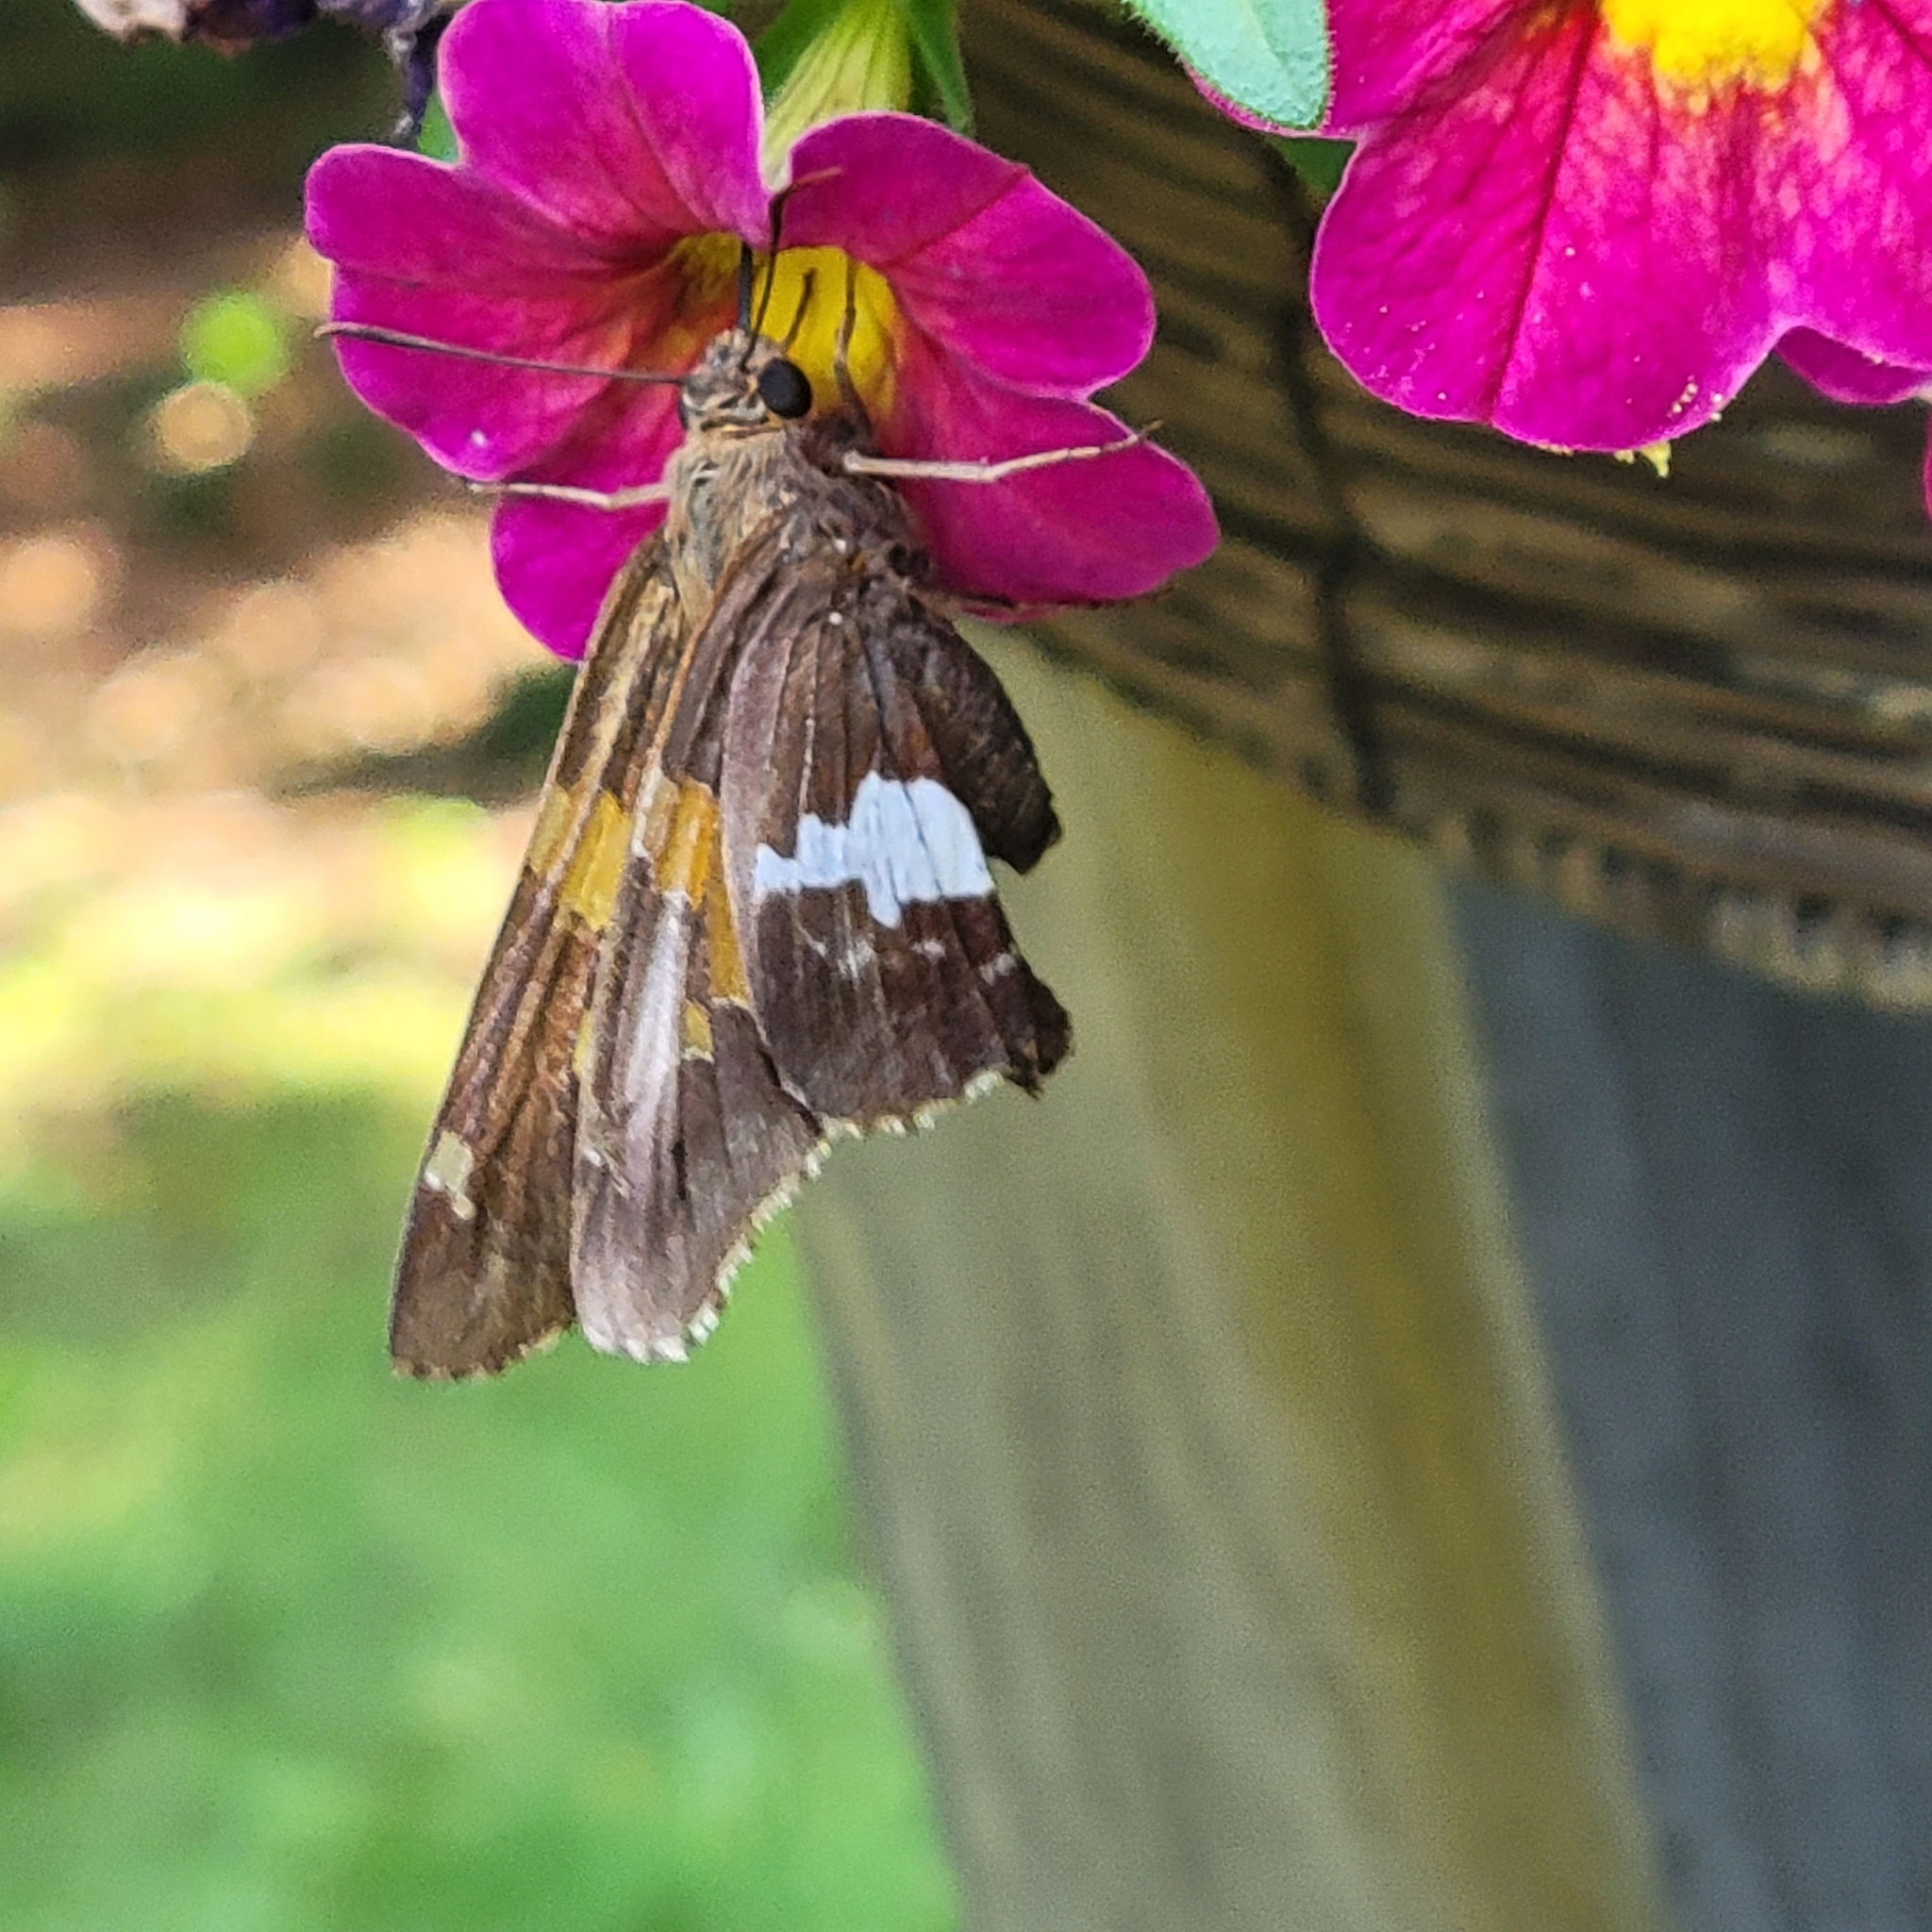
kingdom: Animalia
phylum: Arthropoda
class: Insecta
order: Lepidoptera
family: Hesperiidae
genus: Epargyreus
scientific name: Epargyreus clarus
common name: Silver-spotted skipper
